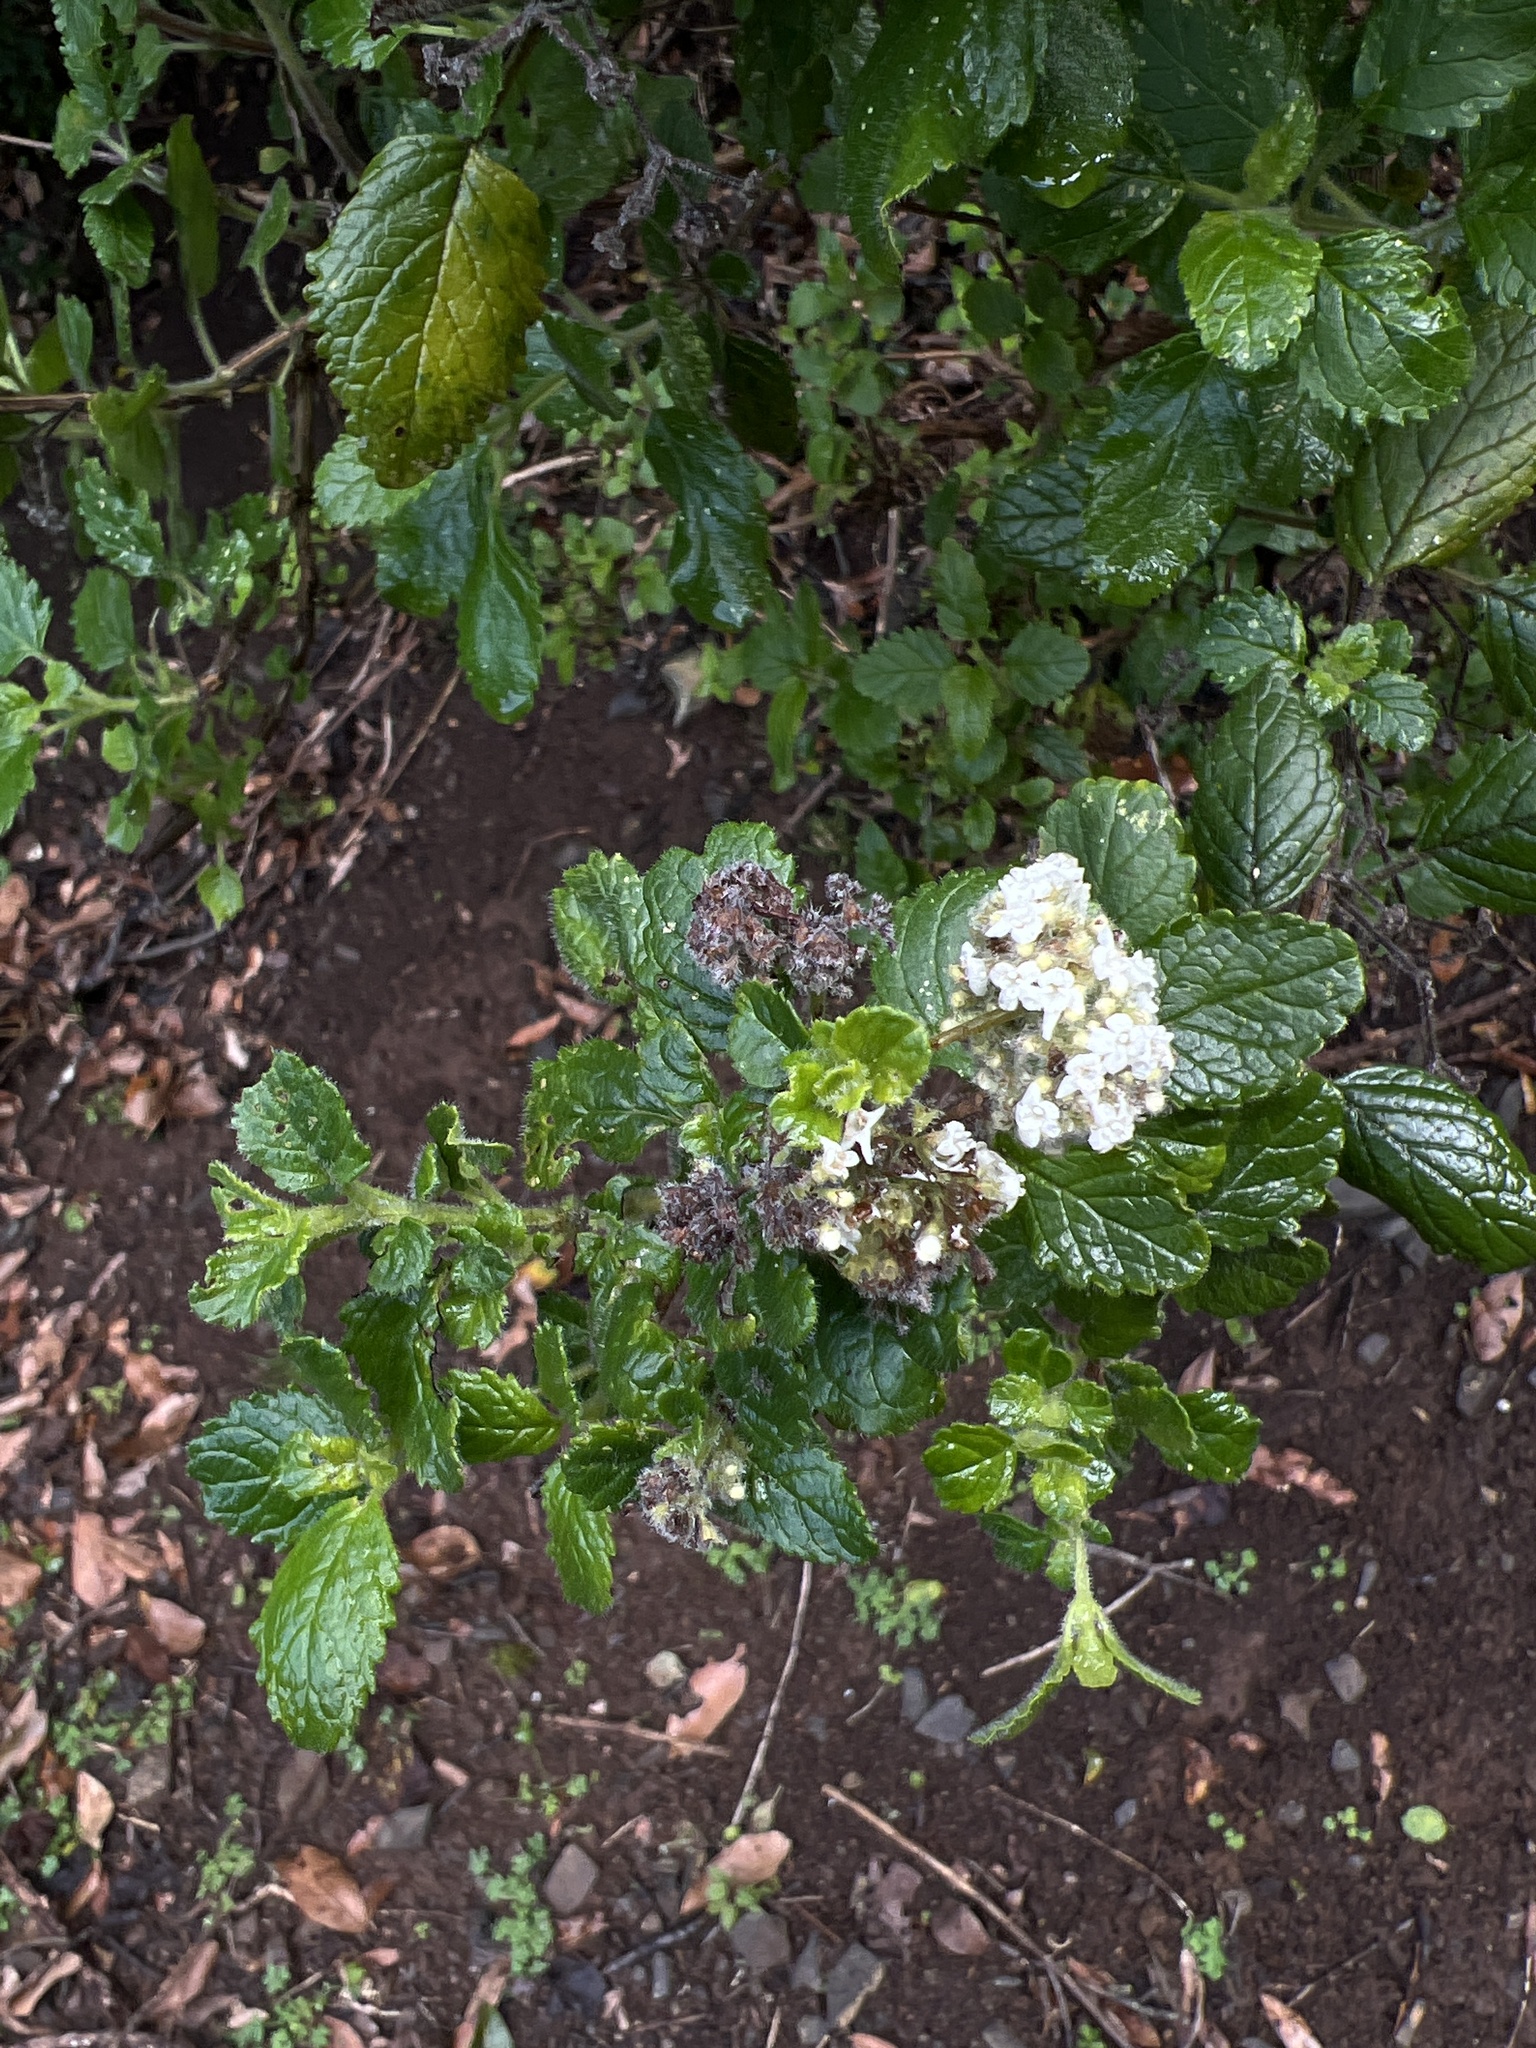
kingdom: Plantae
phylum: Tracheophyta
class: Magnoliopsida
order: Lamiales
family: Lamiaceae
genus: Bystropogon
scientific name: Bystropogon canariensis
